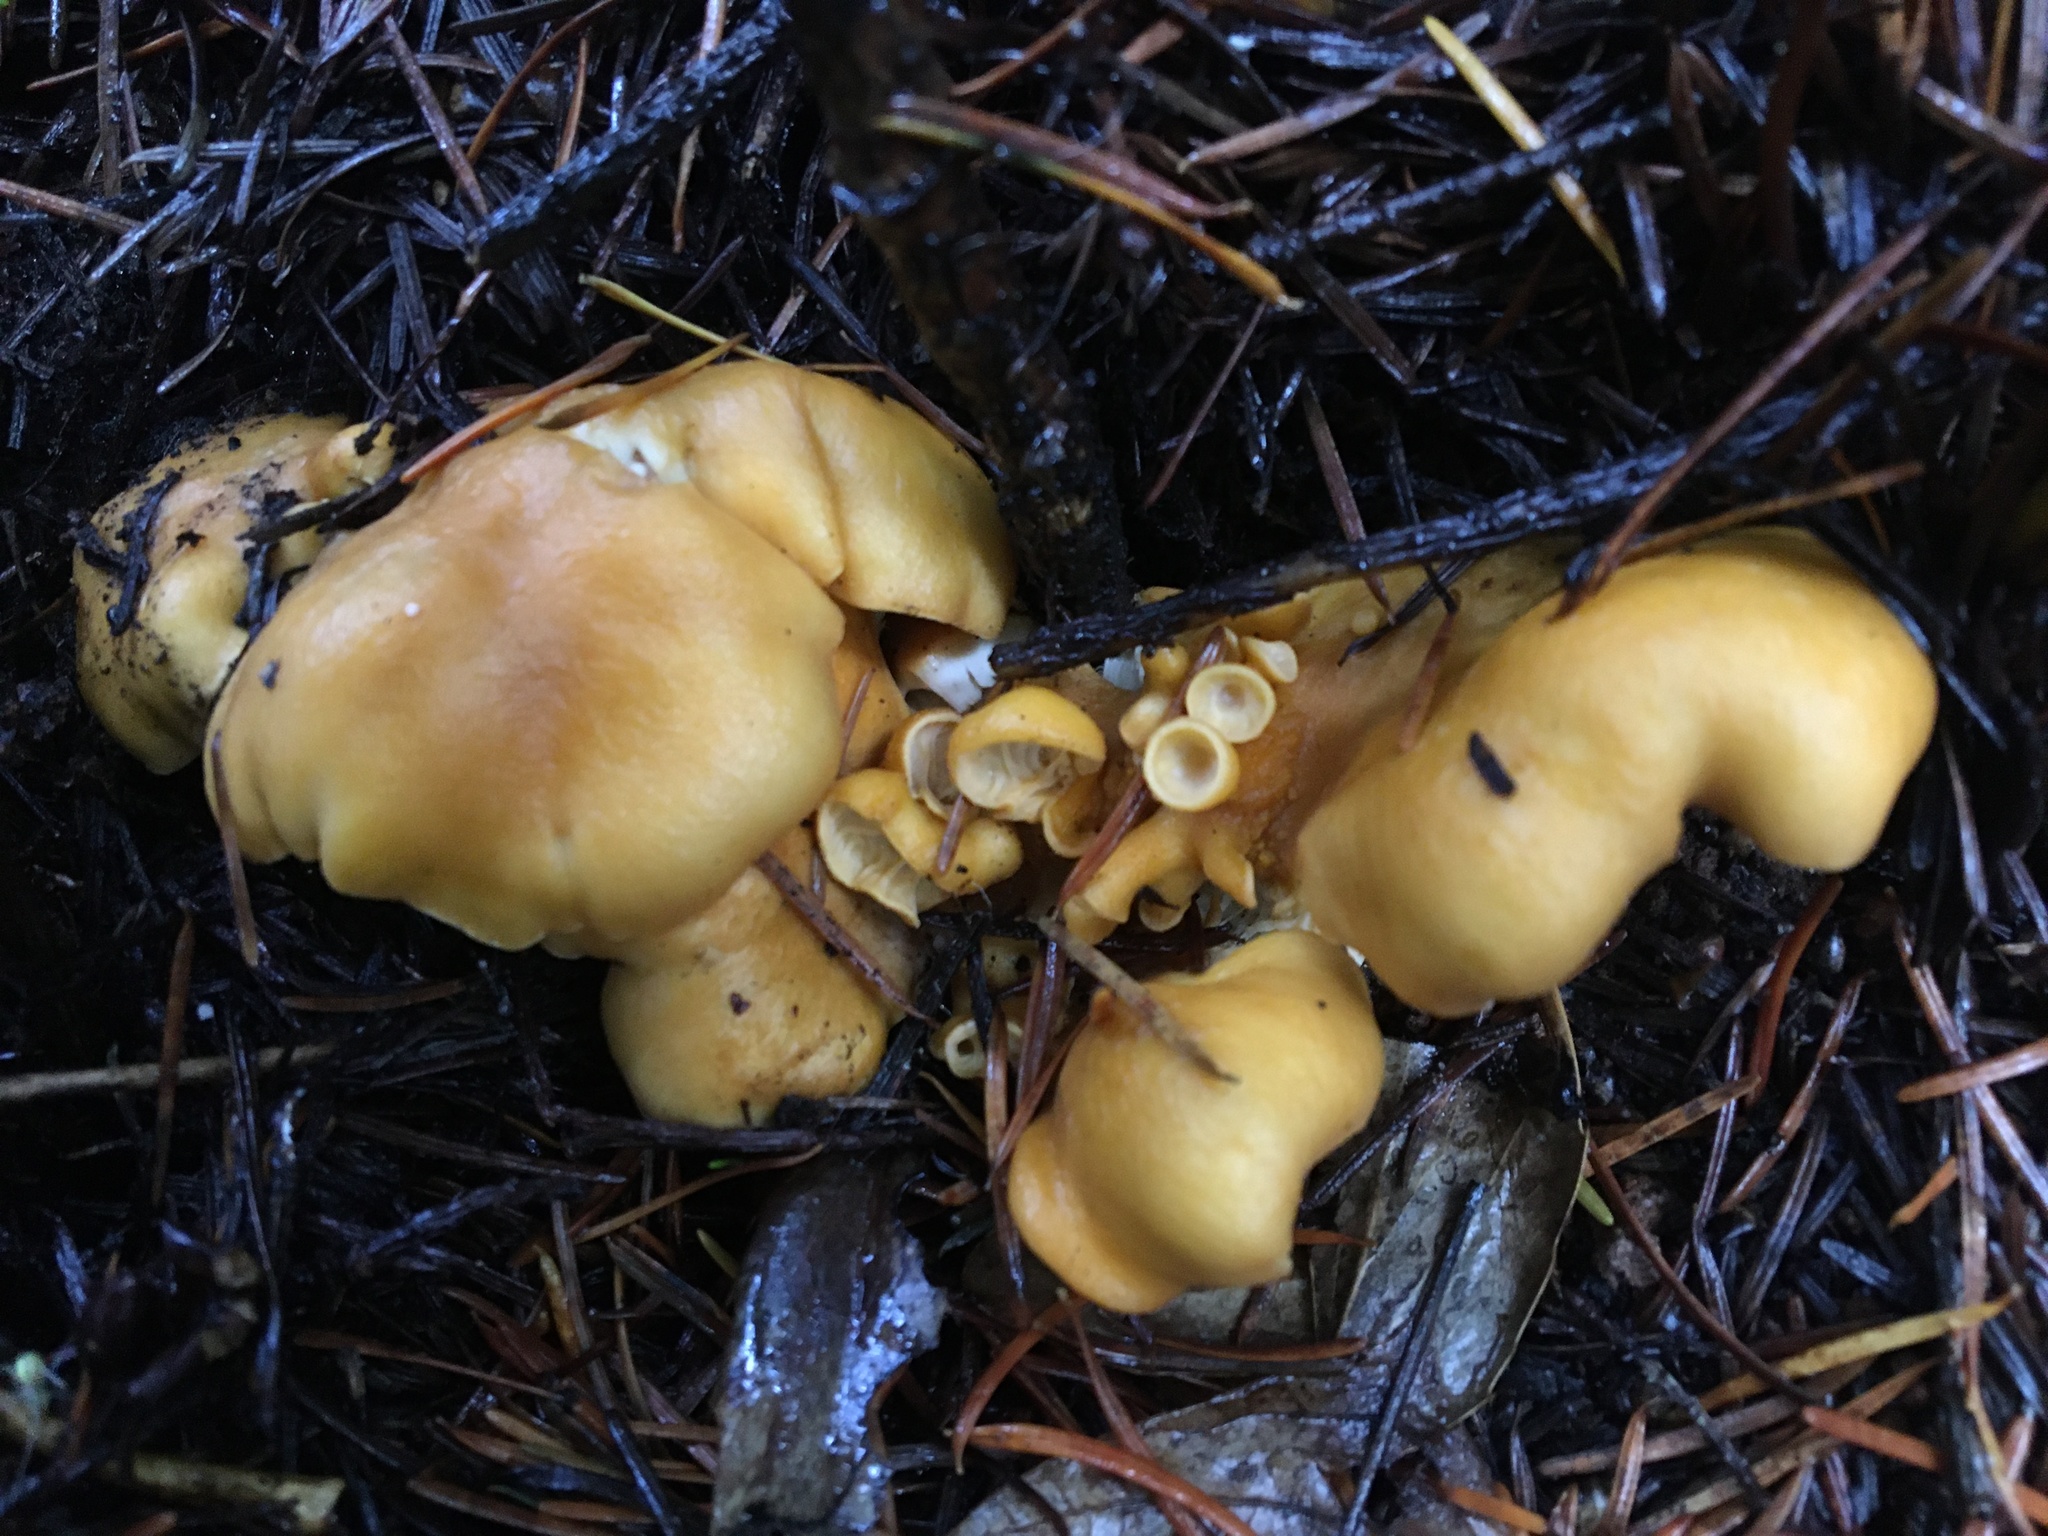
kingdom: Fungi
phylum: Basidiomycota
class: Agaricomycetes
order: Cantharellales
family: Hydnaceae
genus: Cantharellus
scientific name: Cantharellus formosus
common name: Pacific golden chanterelle
